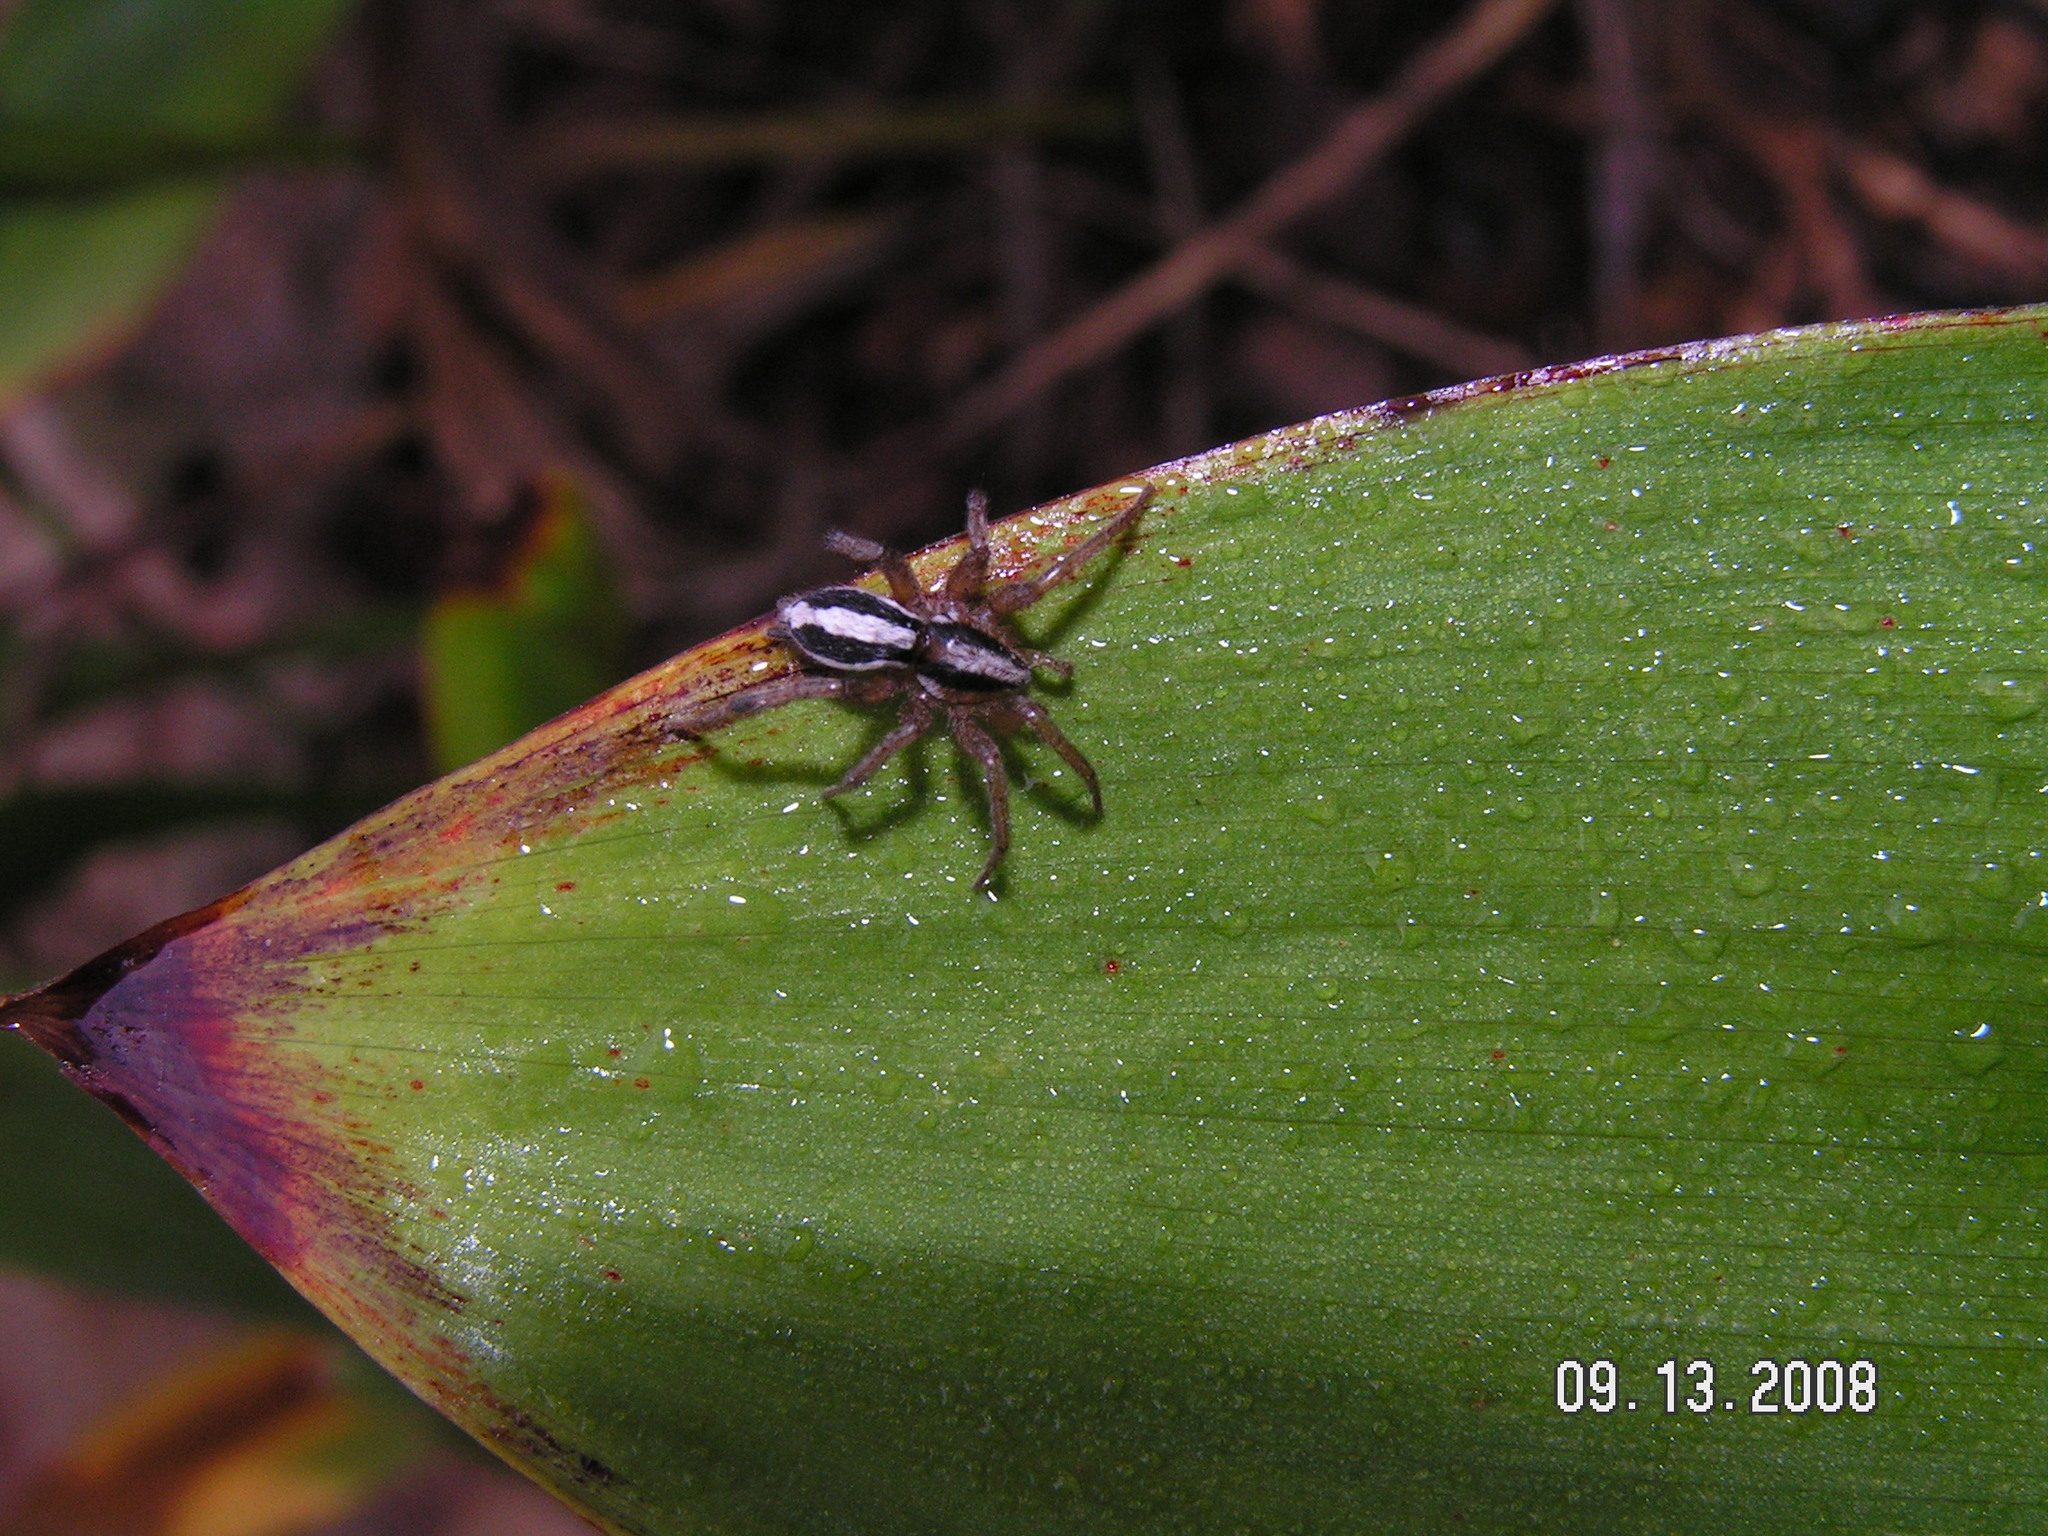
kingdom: Animalia
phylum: Arthropoda
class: Arachnida
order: Araneae
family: Gnaphosidae
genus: Cesonia
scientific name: Cesonia bilineata
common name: Two-lined stealthy ground spider
